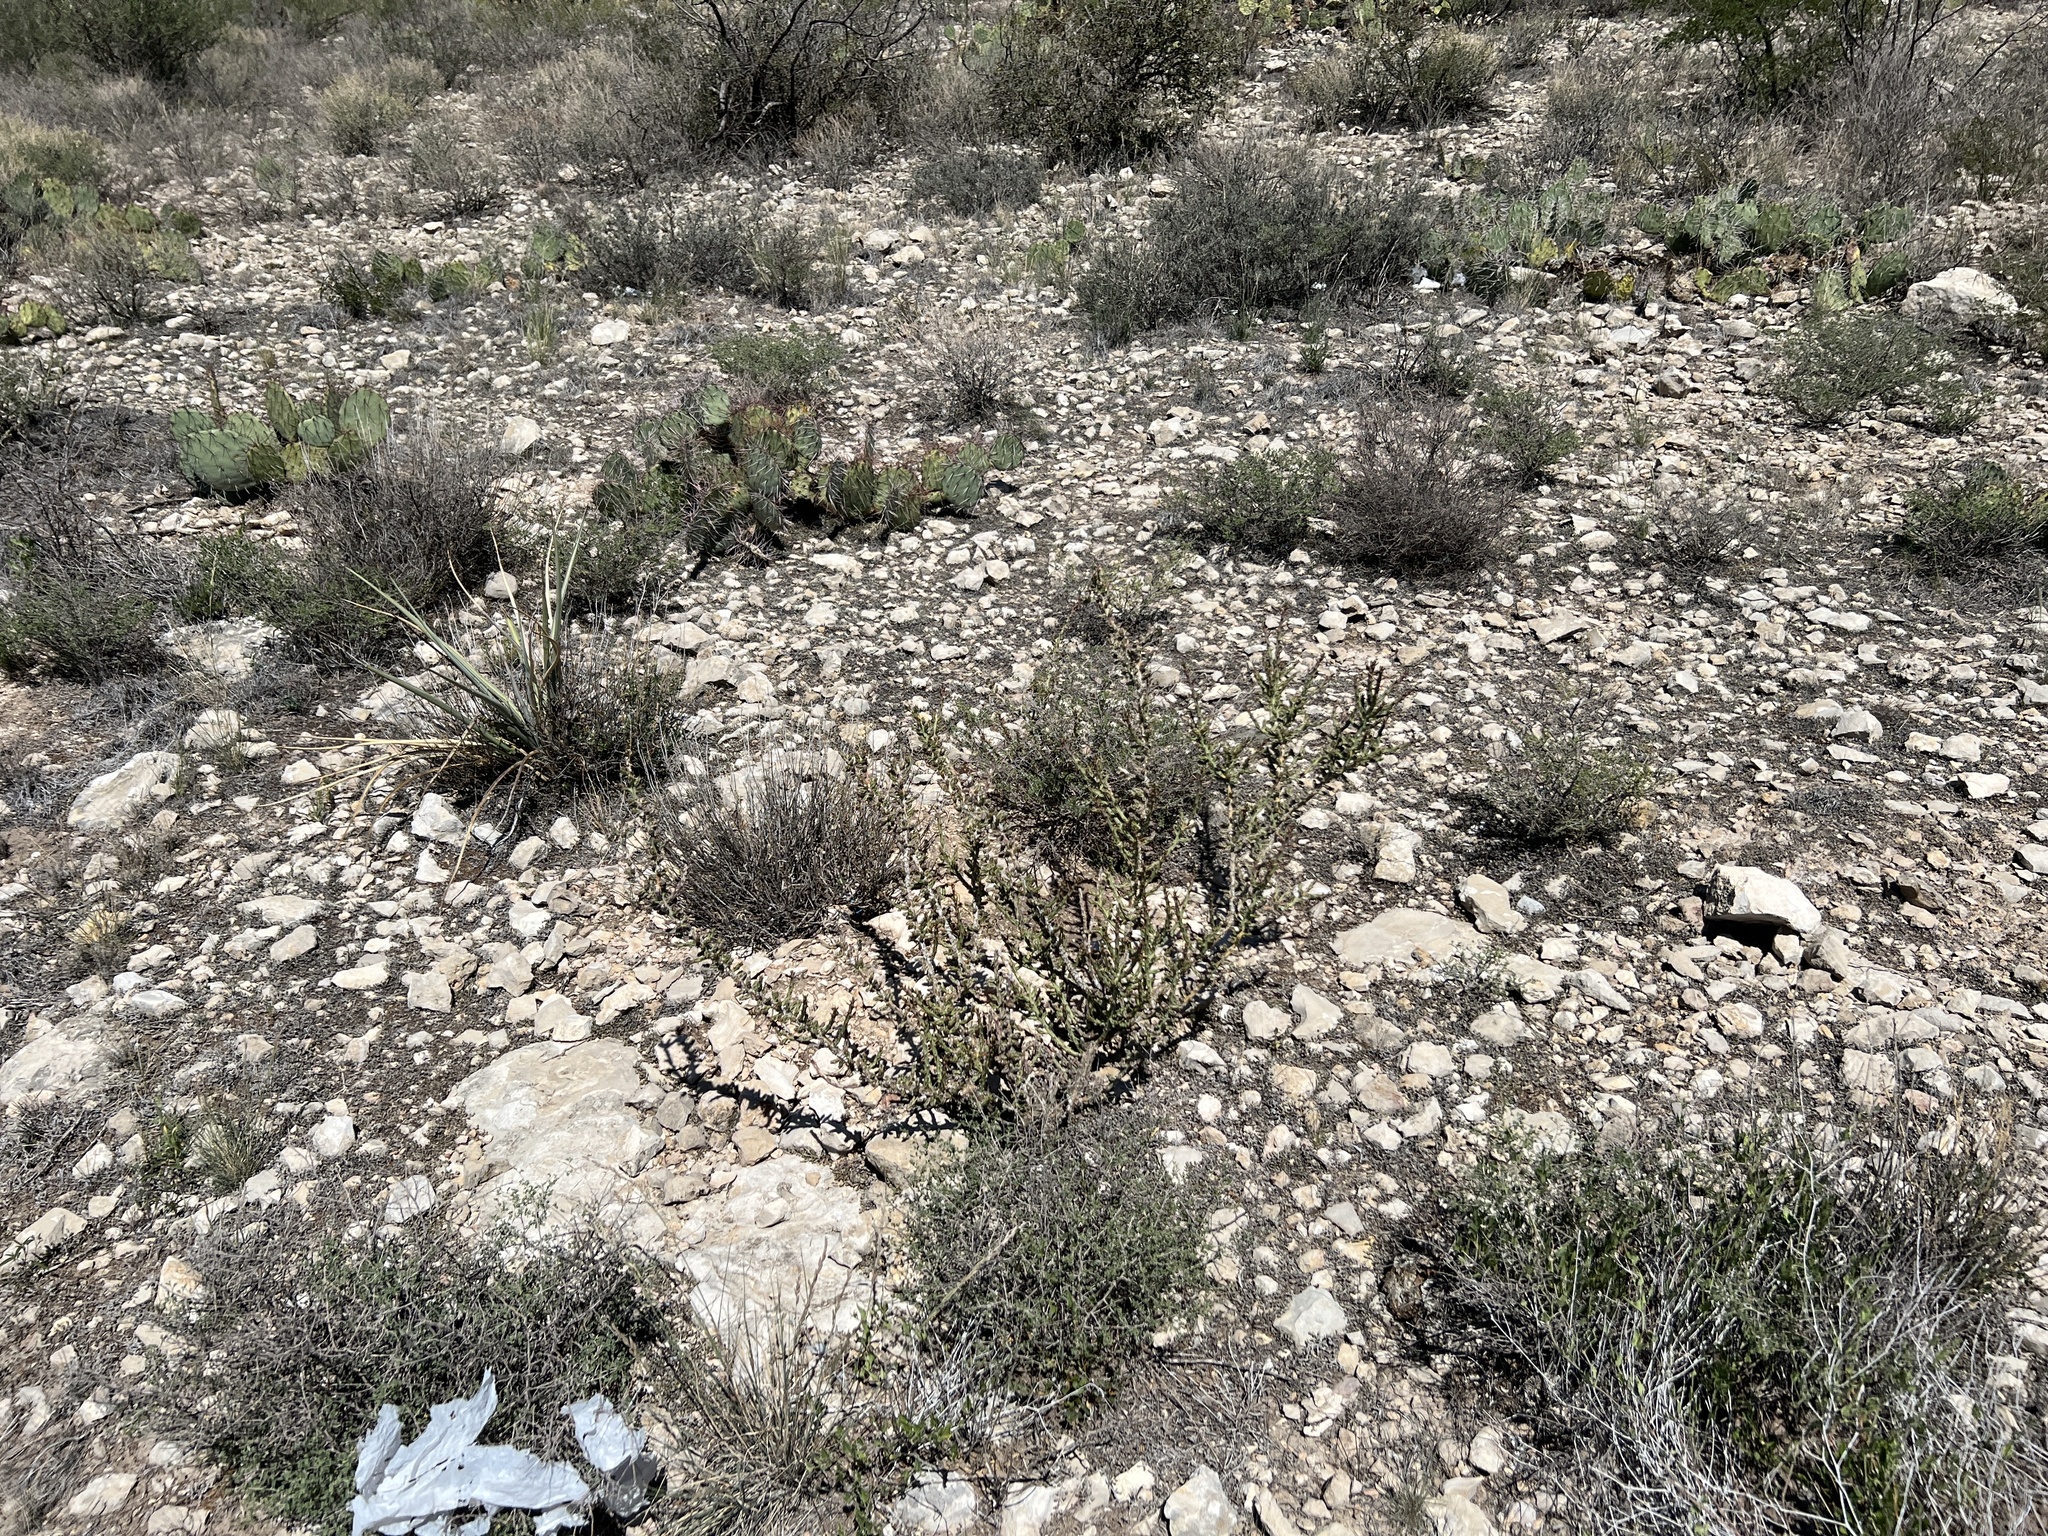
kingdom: Plantae
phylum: Tracheophyta
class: Magnoliopsida
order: Caryophyllales
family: Cactaceae
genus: Cylindropuntia
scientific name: Cylindropuntia leptocaulis
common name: Christmas cactus
